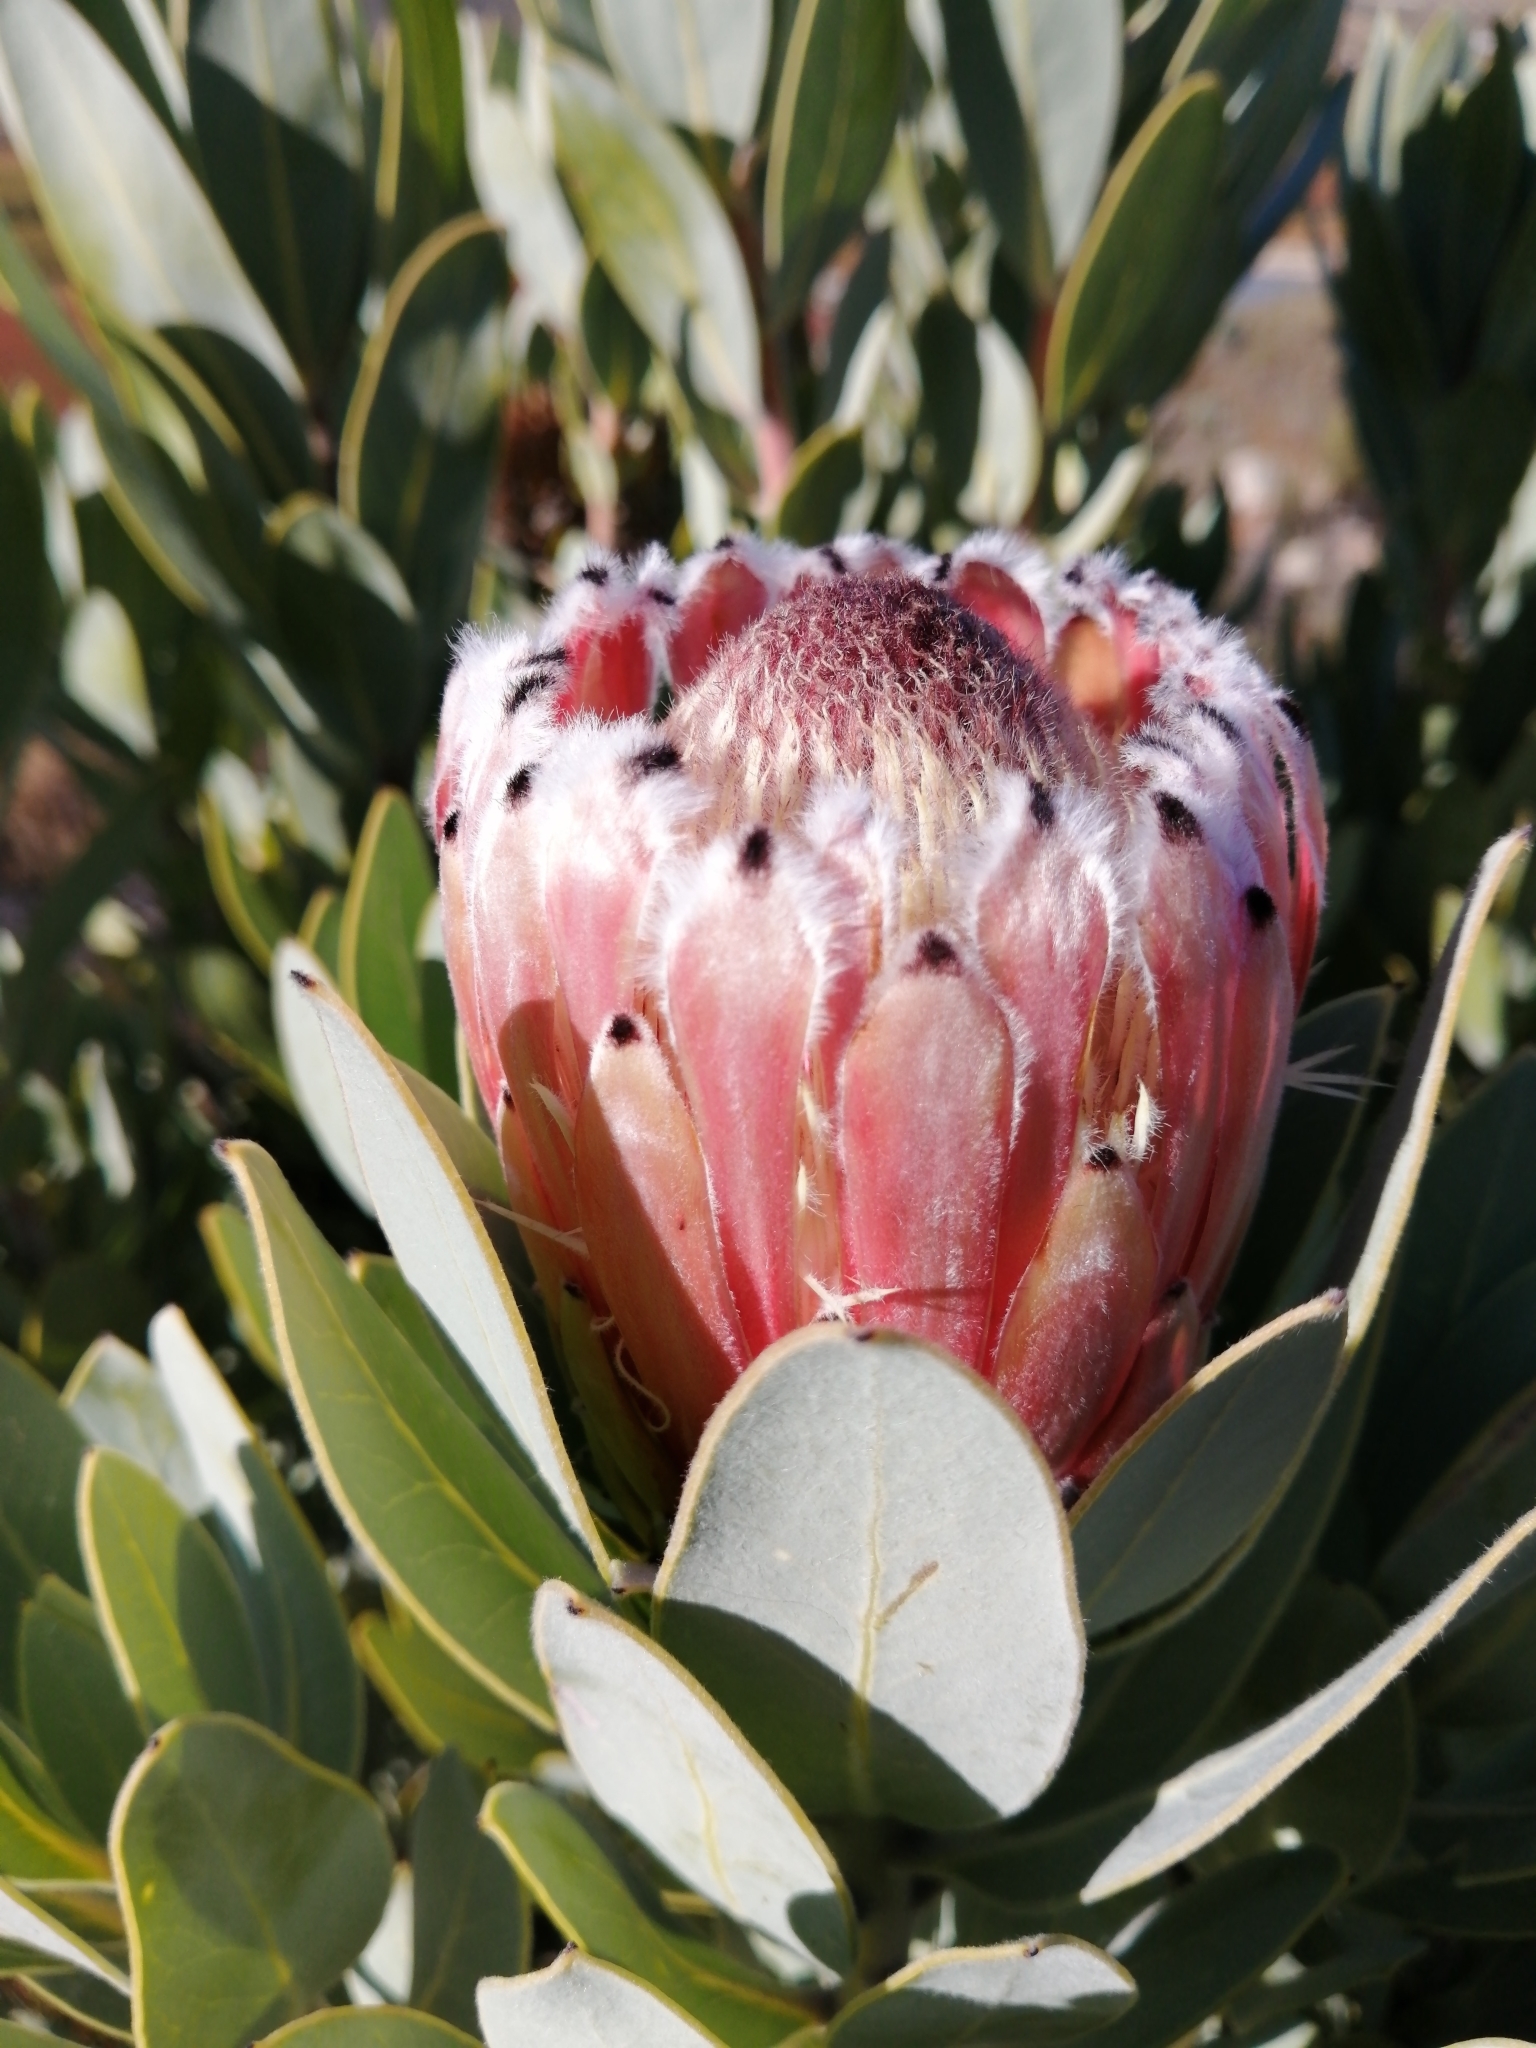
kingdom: Plantae
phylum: Tracheophyta
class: Magnoliopsida
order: Proteales
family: Proteaceae
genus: Protea
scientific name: Protea laurifolia
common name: Grey-leaf sugarbsh
